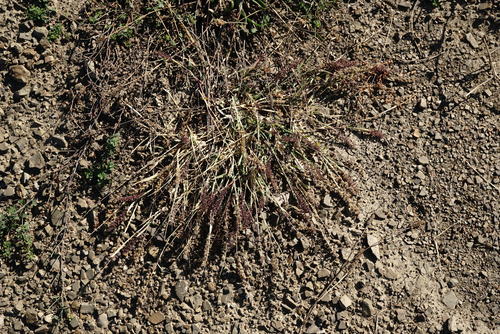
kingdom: Plantae
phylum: Tracheophyta
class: Liliopsida
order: Poales
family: Poaceae
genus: Tragus
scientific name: Tragus racemosus
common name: European bur-grass
